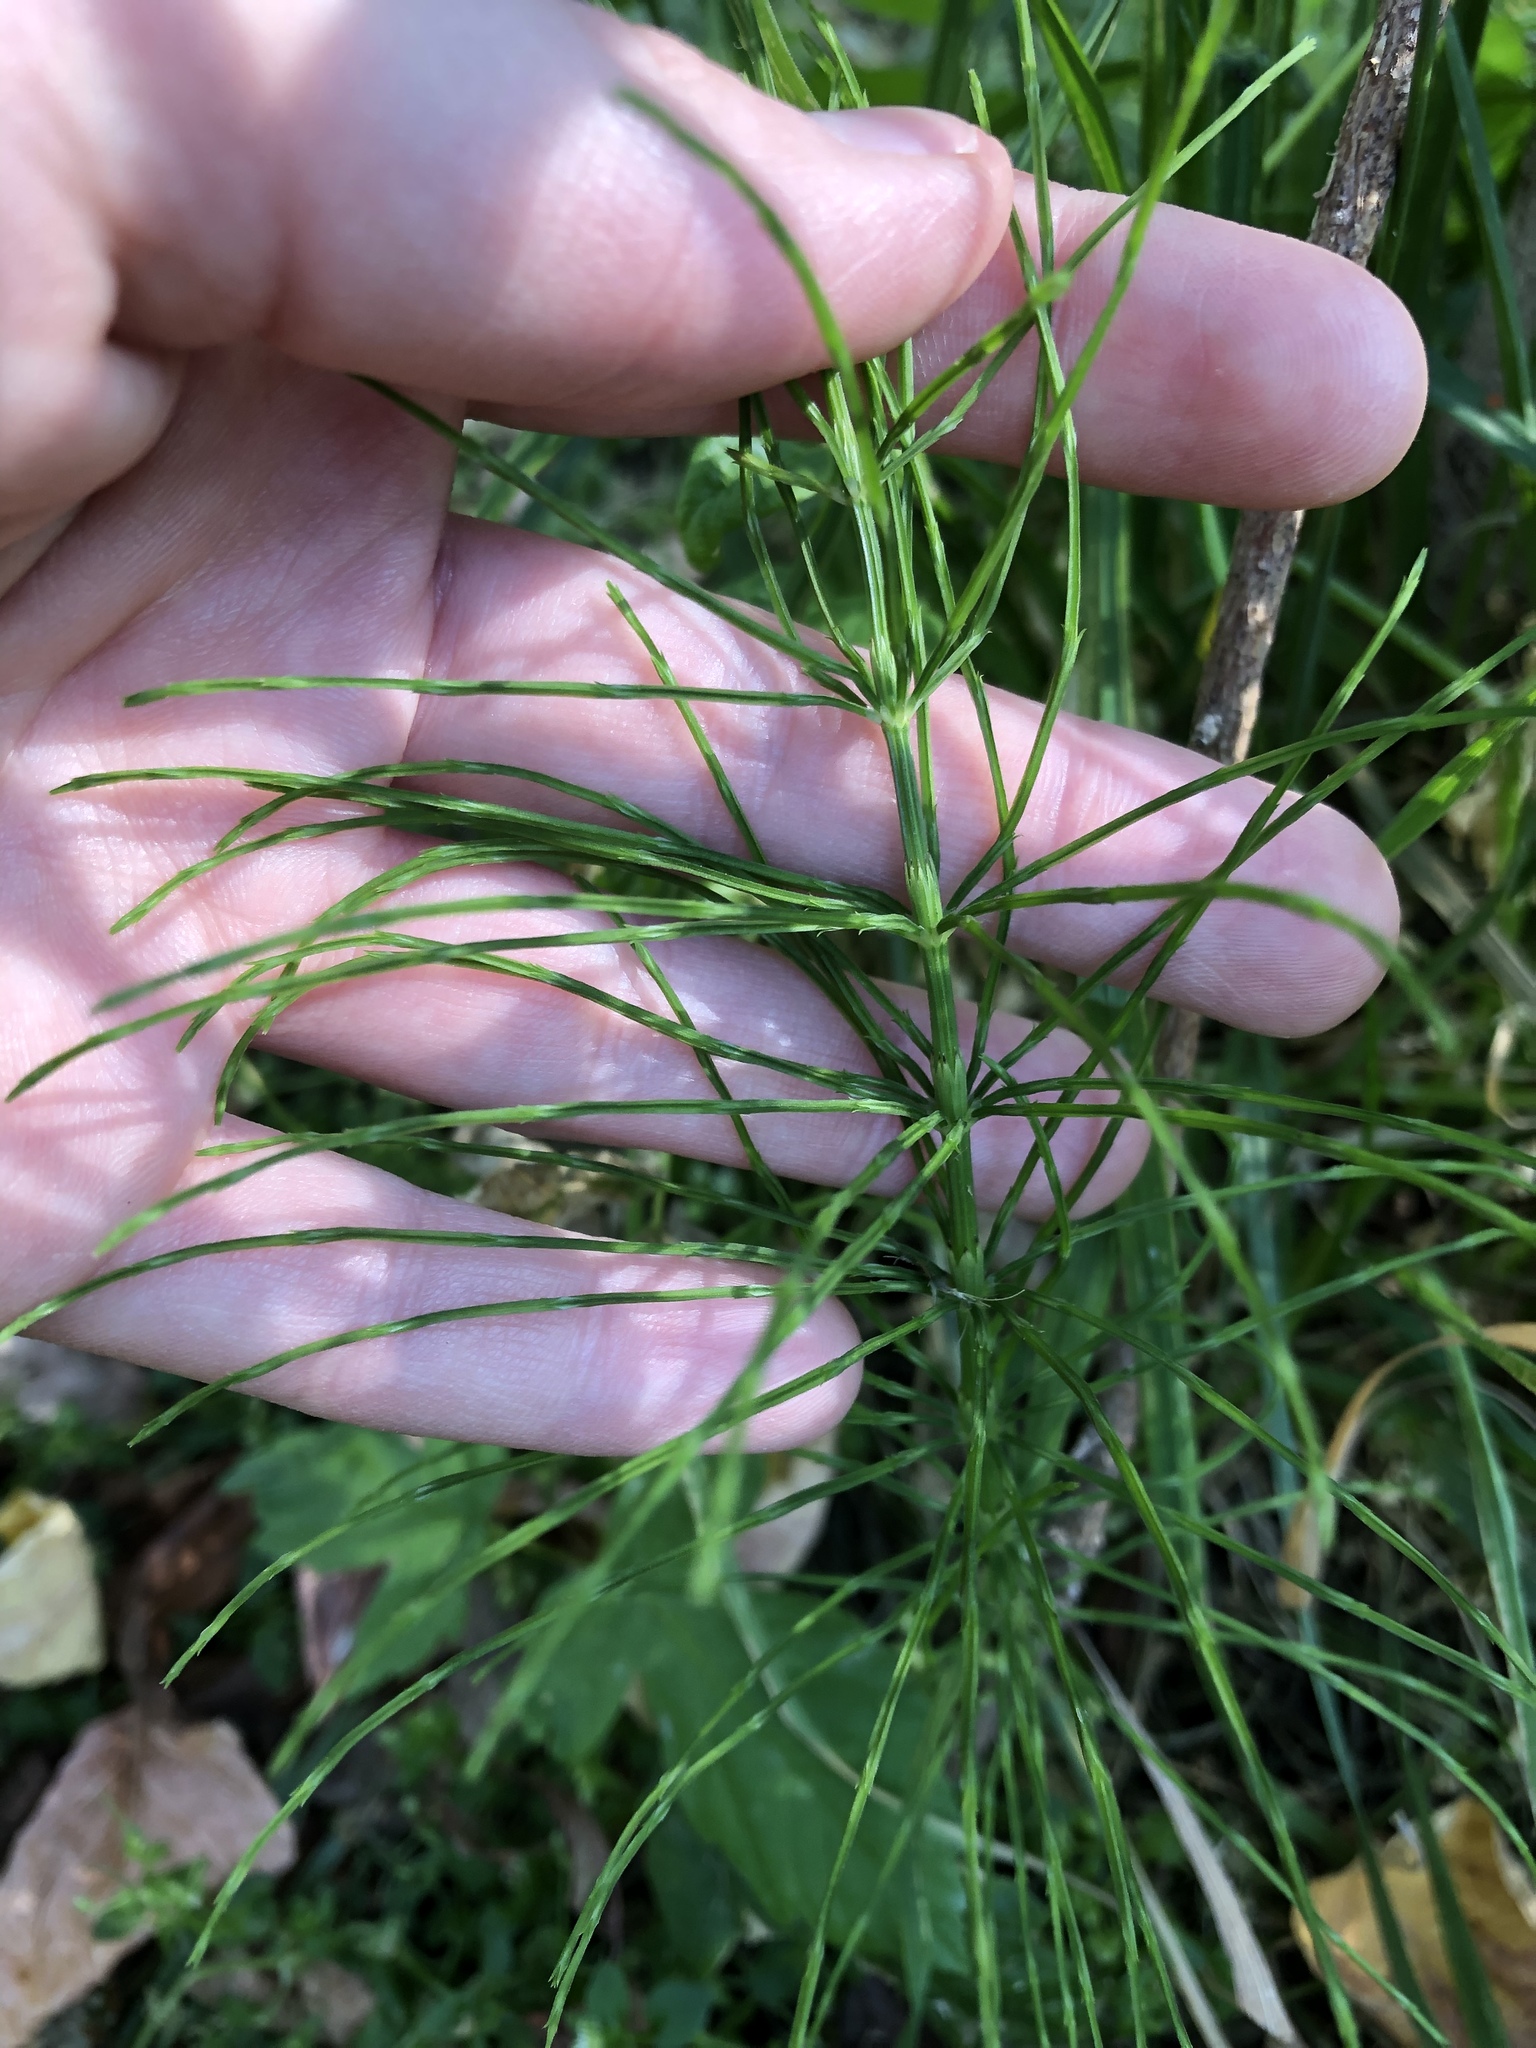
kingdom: Plantae
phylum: Tracheophyta
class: Polypodiopsida
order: Equisetales
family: Equisetaceae
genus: Equisetum
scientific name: Equisetum arvense
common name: Field horsetail
